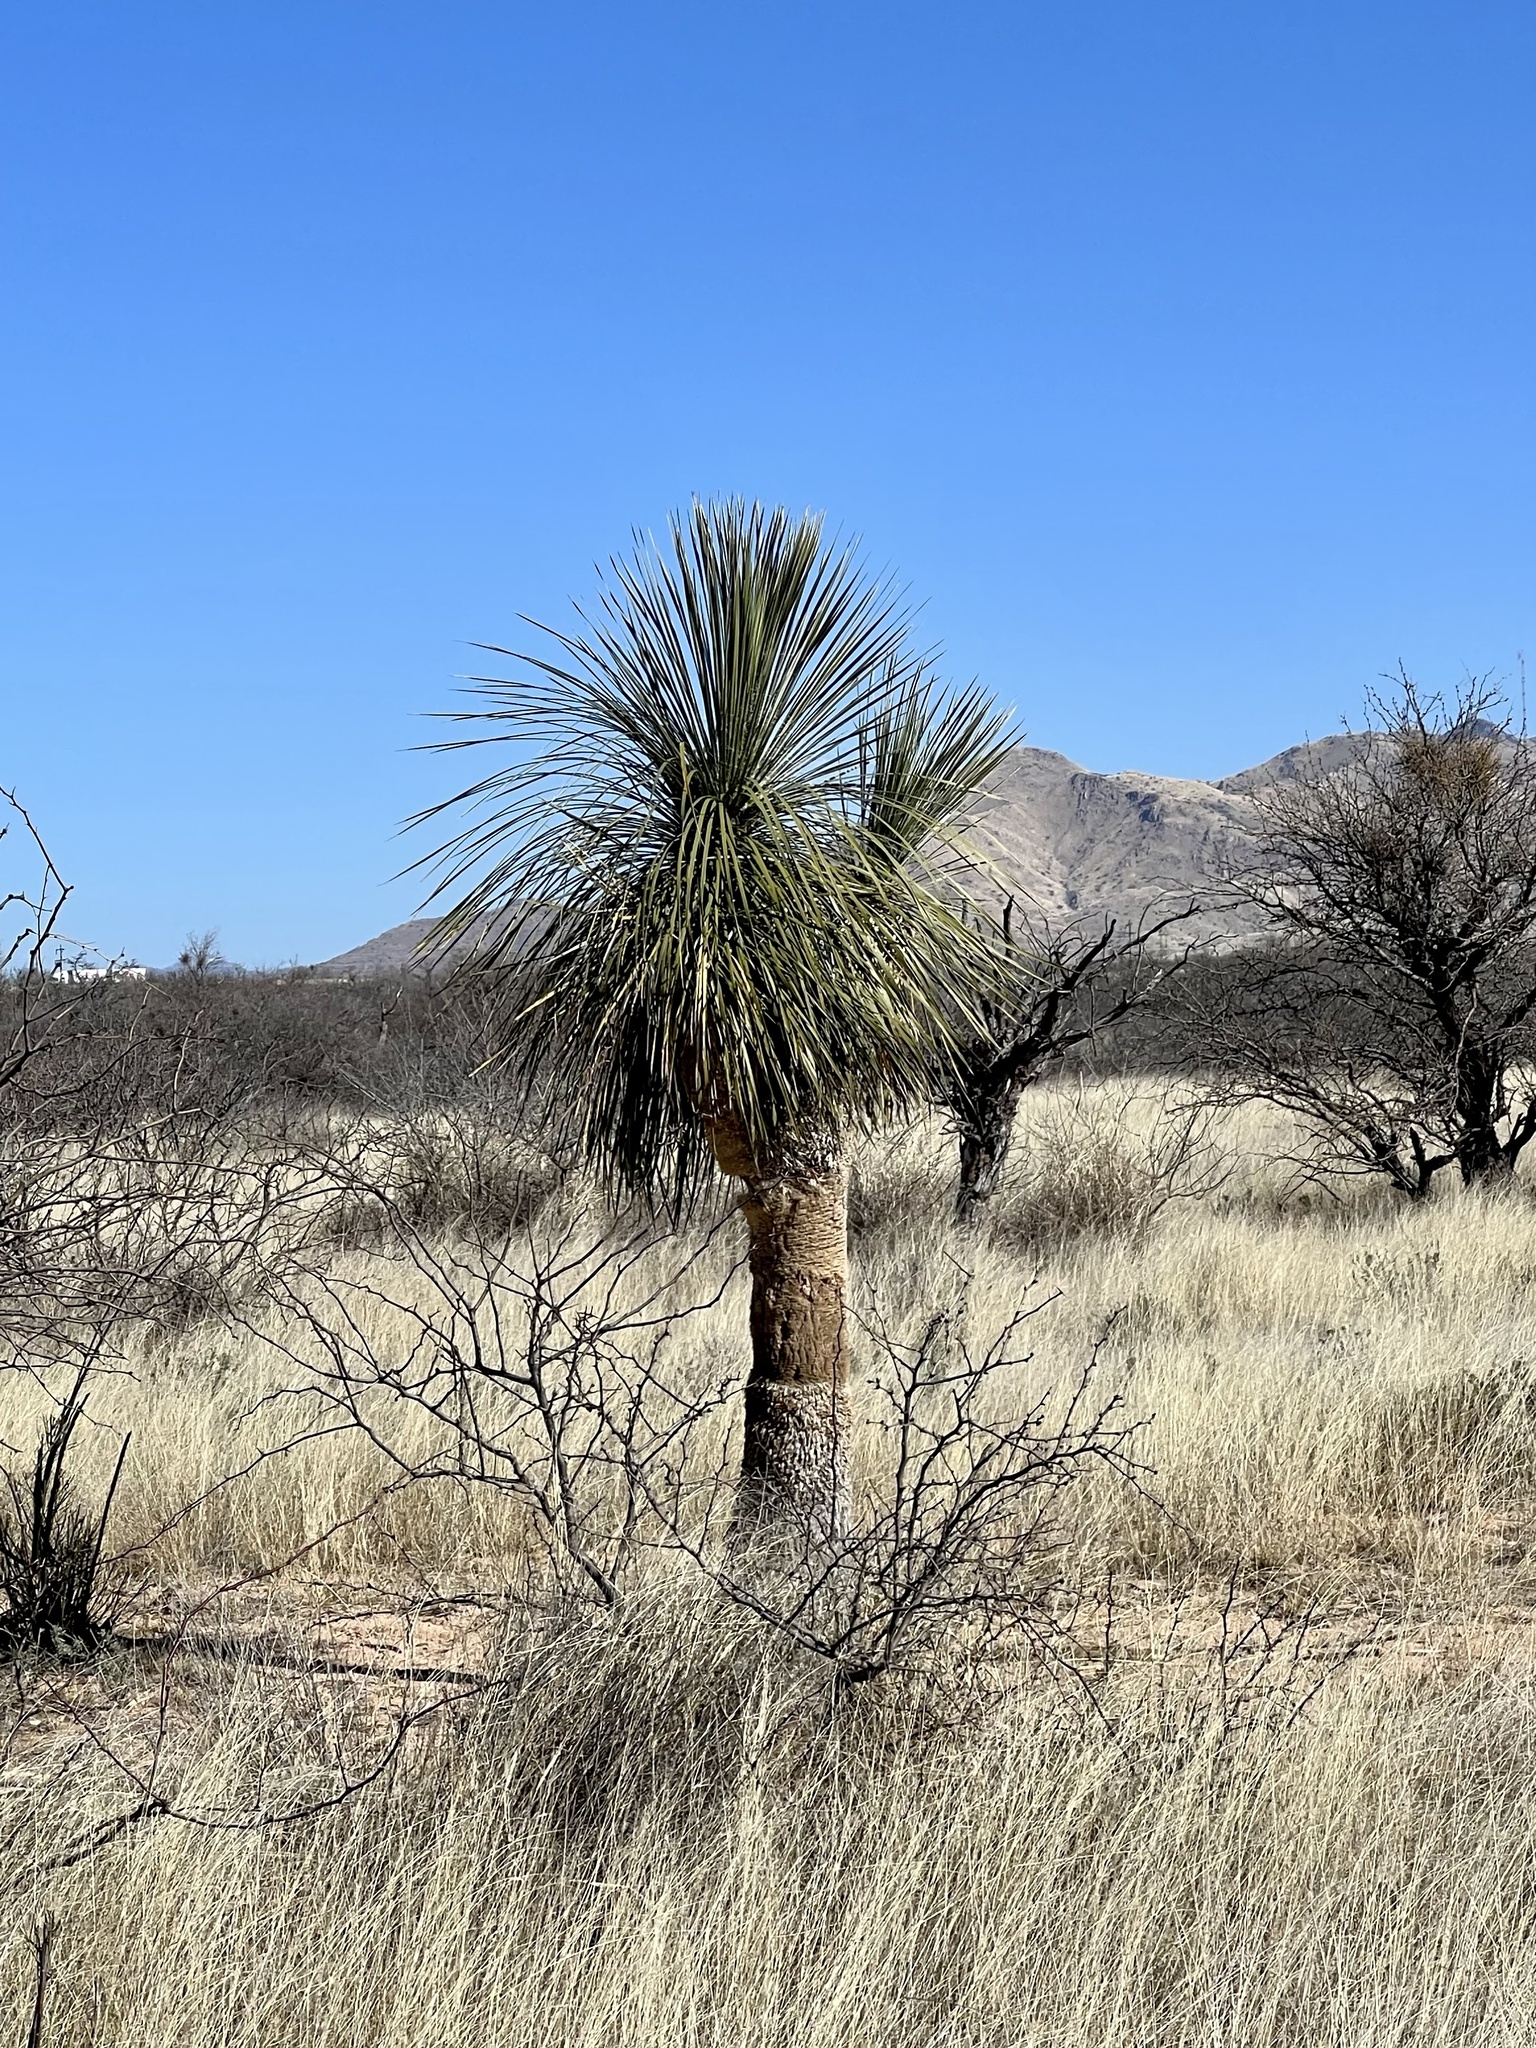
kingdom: Plantae
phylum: Tracheophyta
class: Liliopsida
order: Asparagales
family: Asparagaceae
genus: Yucca
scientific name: Yucca elata
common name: Palmella
